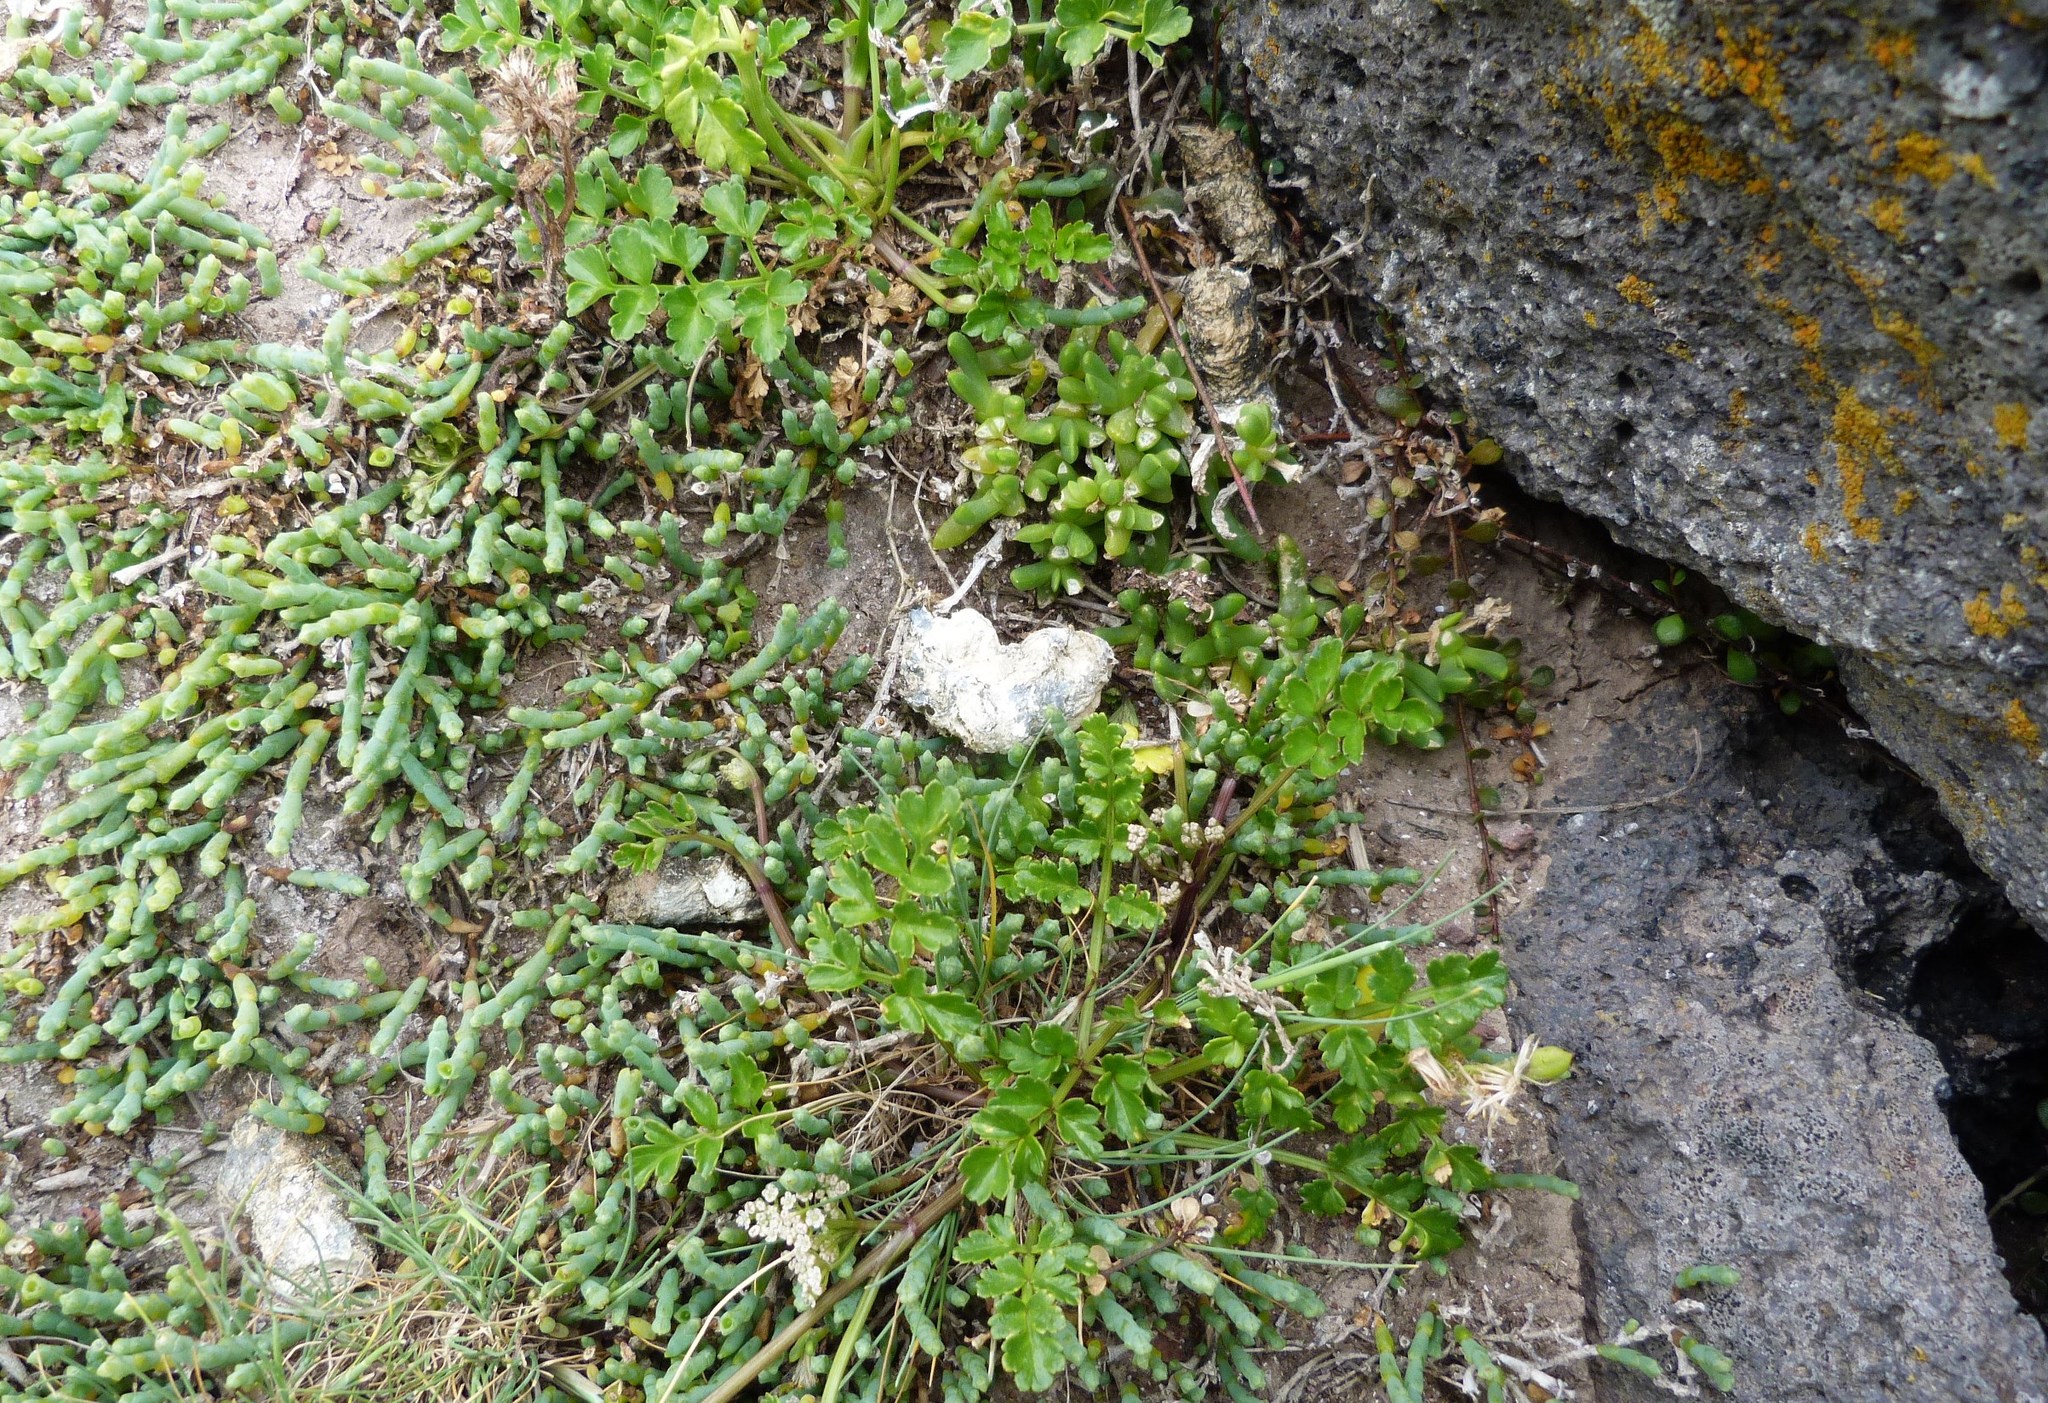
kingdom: Plantae
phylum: Tracheophyta
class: Magnoliopsida
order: Apiales
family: Apiaceae
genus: Apium
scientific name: Apium prostratum
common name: Prostrate marshwort
